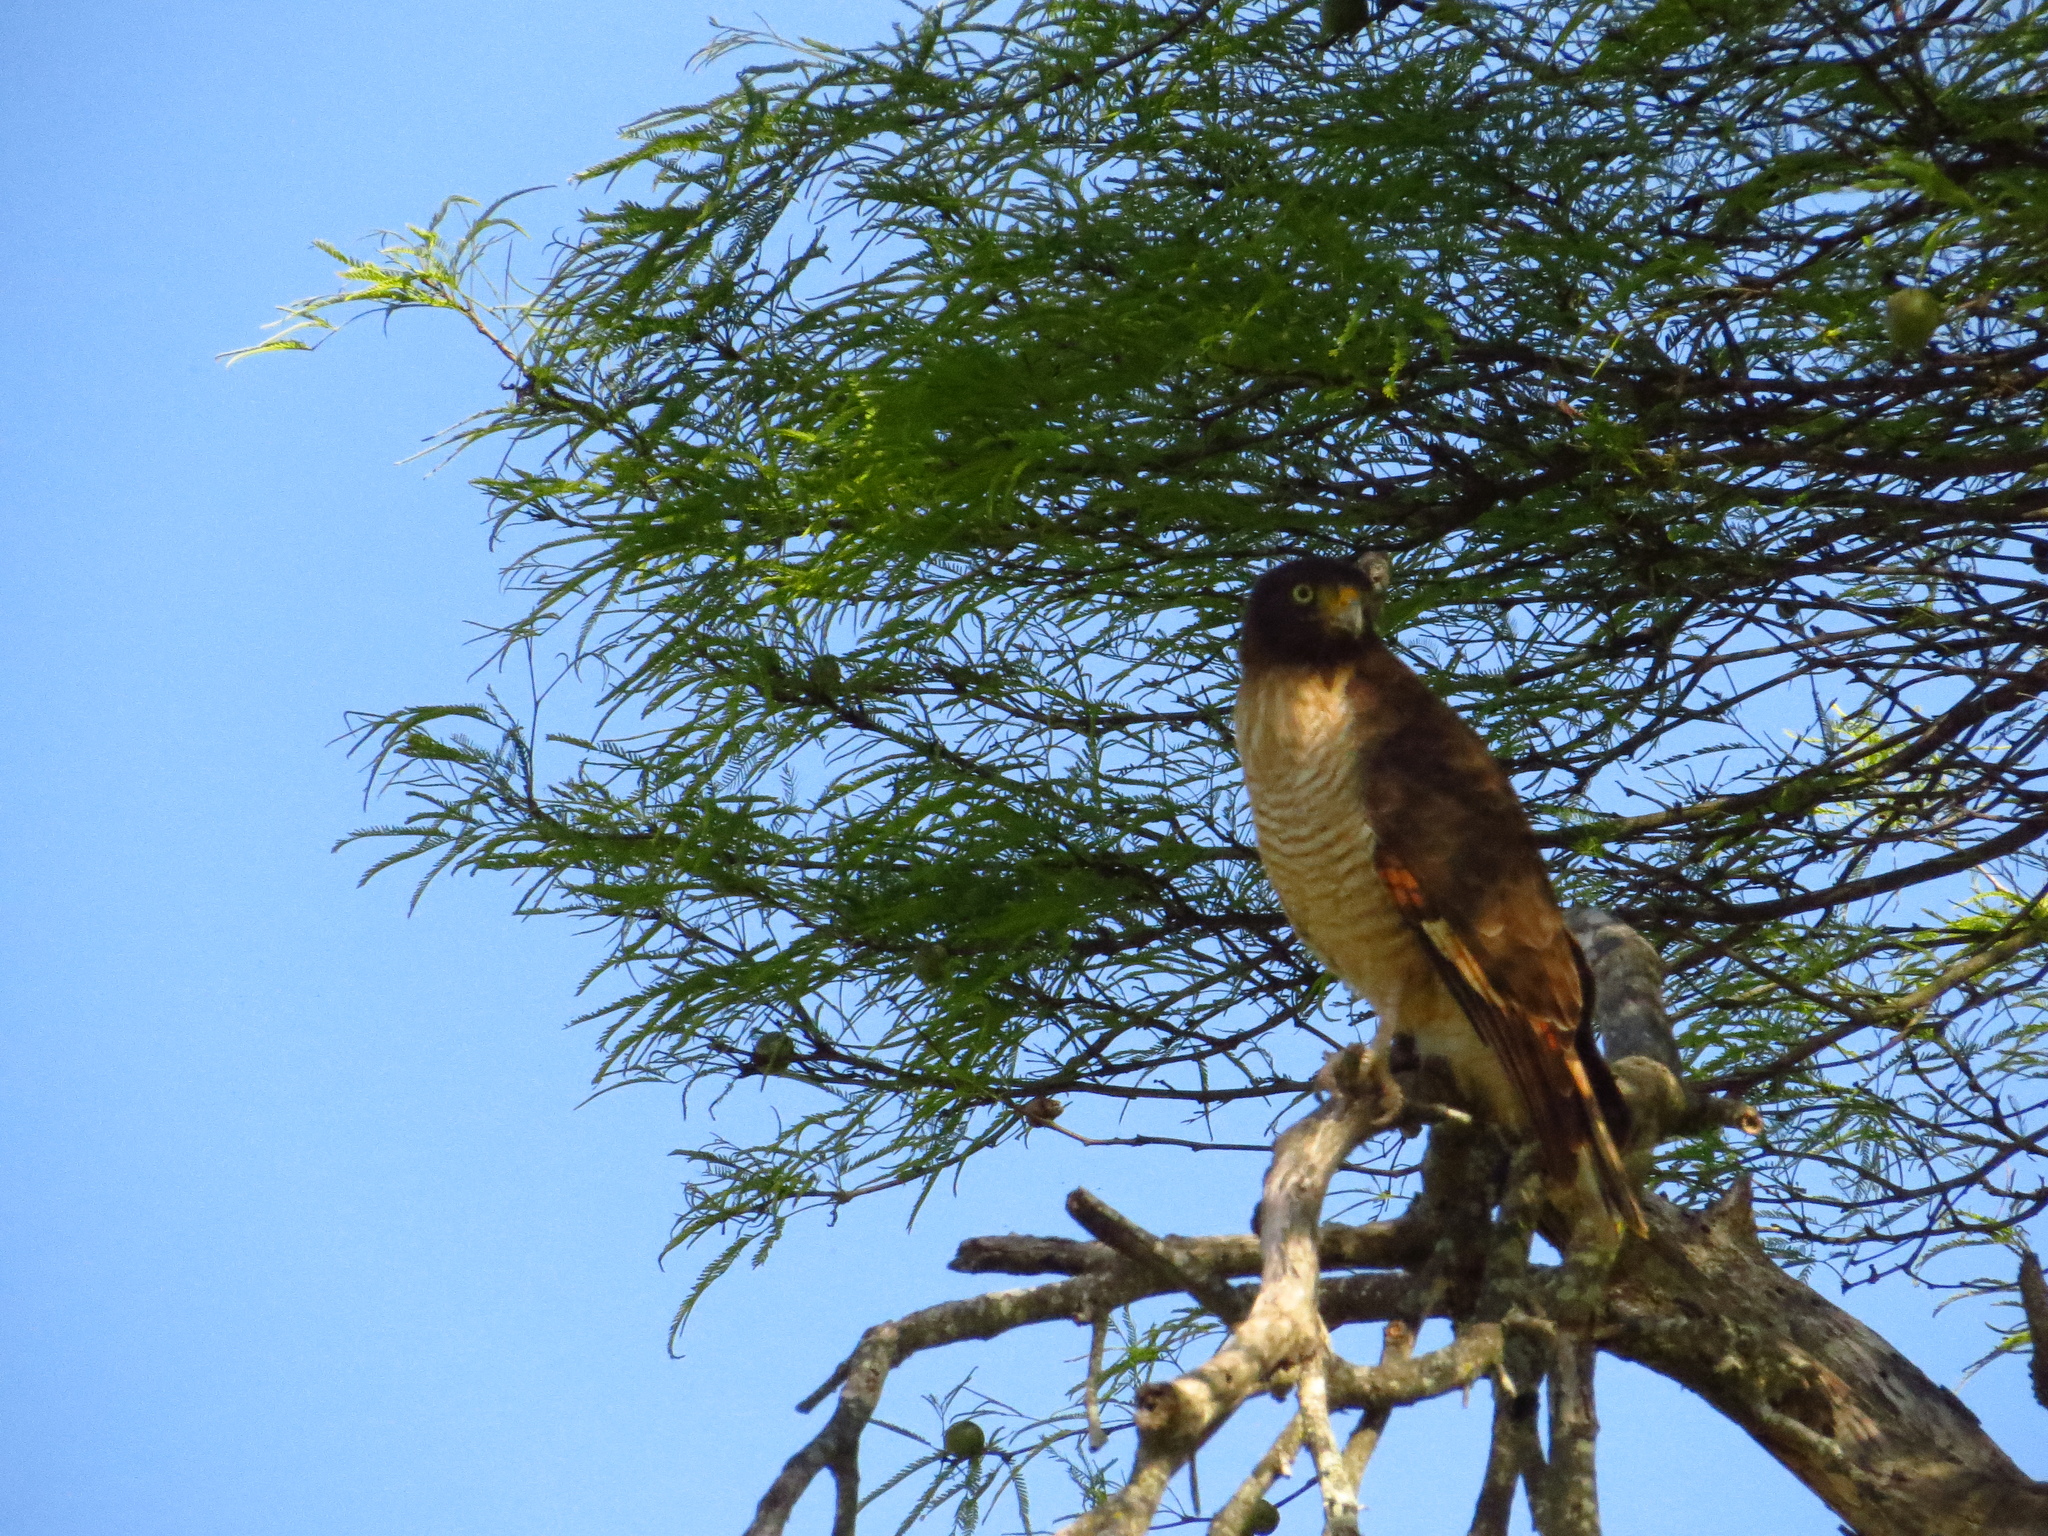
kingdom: Animalia
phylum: Chordata
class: Aves
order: Accipitriformes
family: Accipitridae
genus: Rupornis
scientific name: Rupornis magnirostris
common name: Roadside hawk
